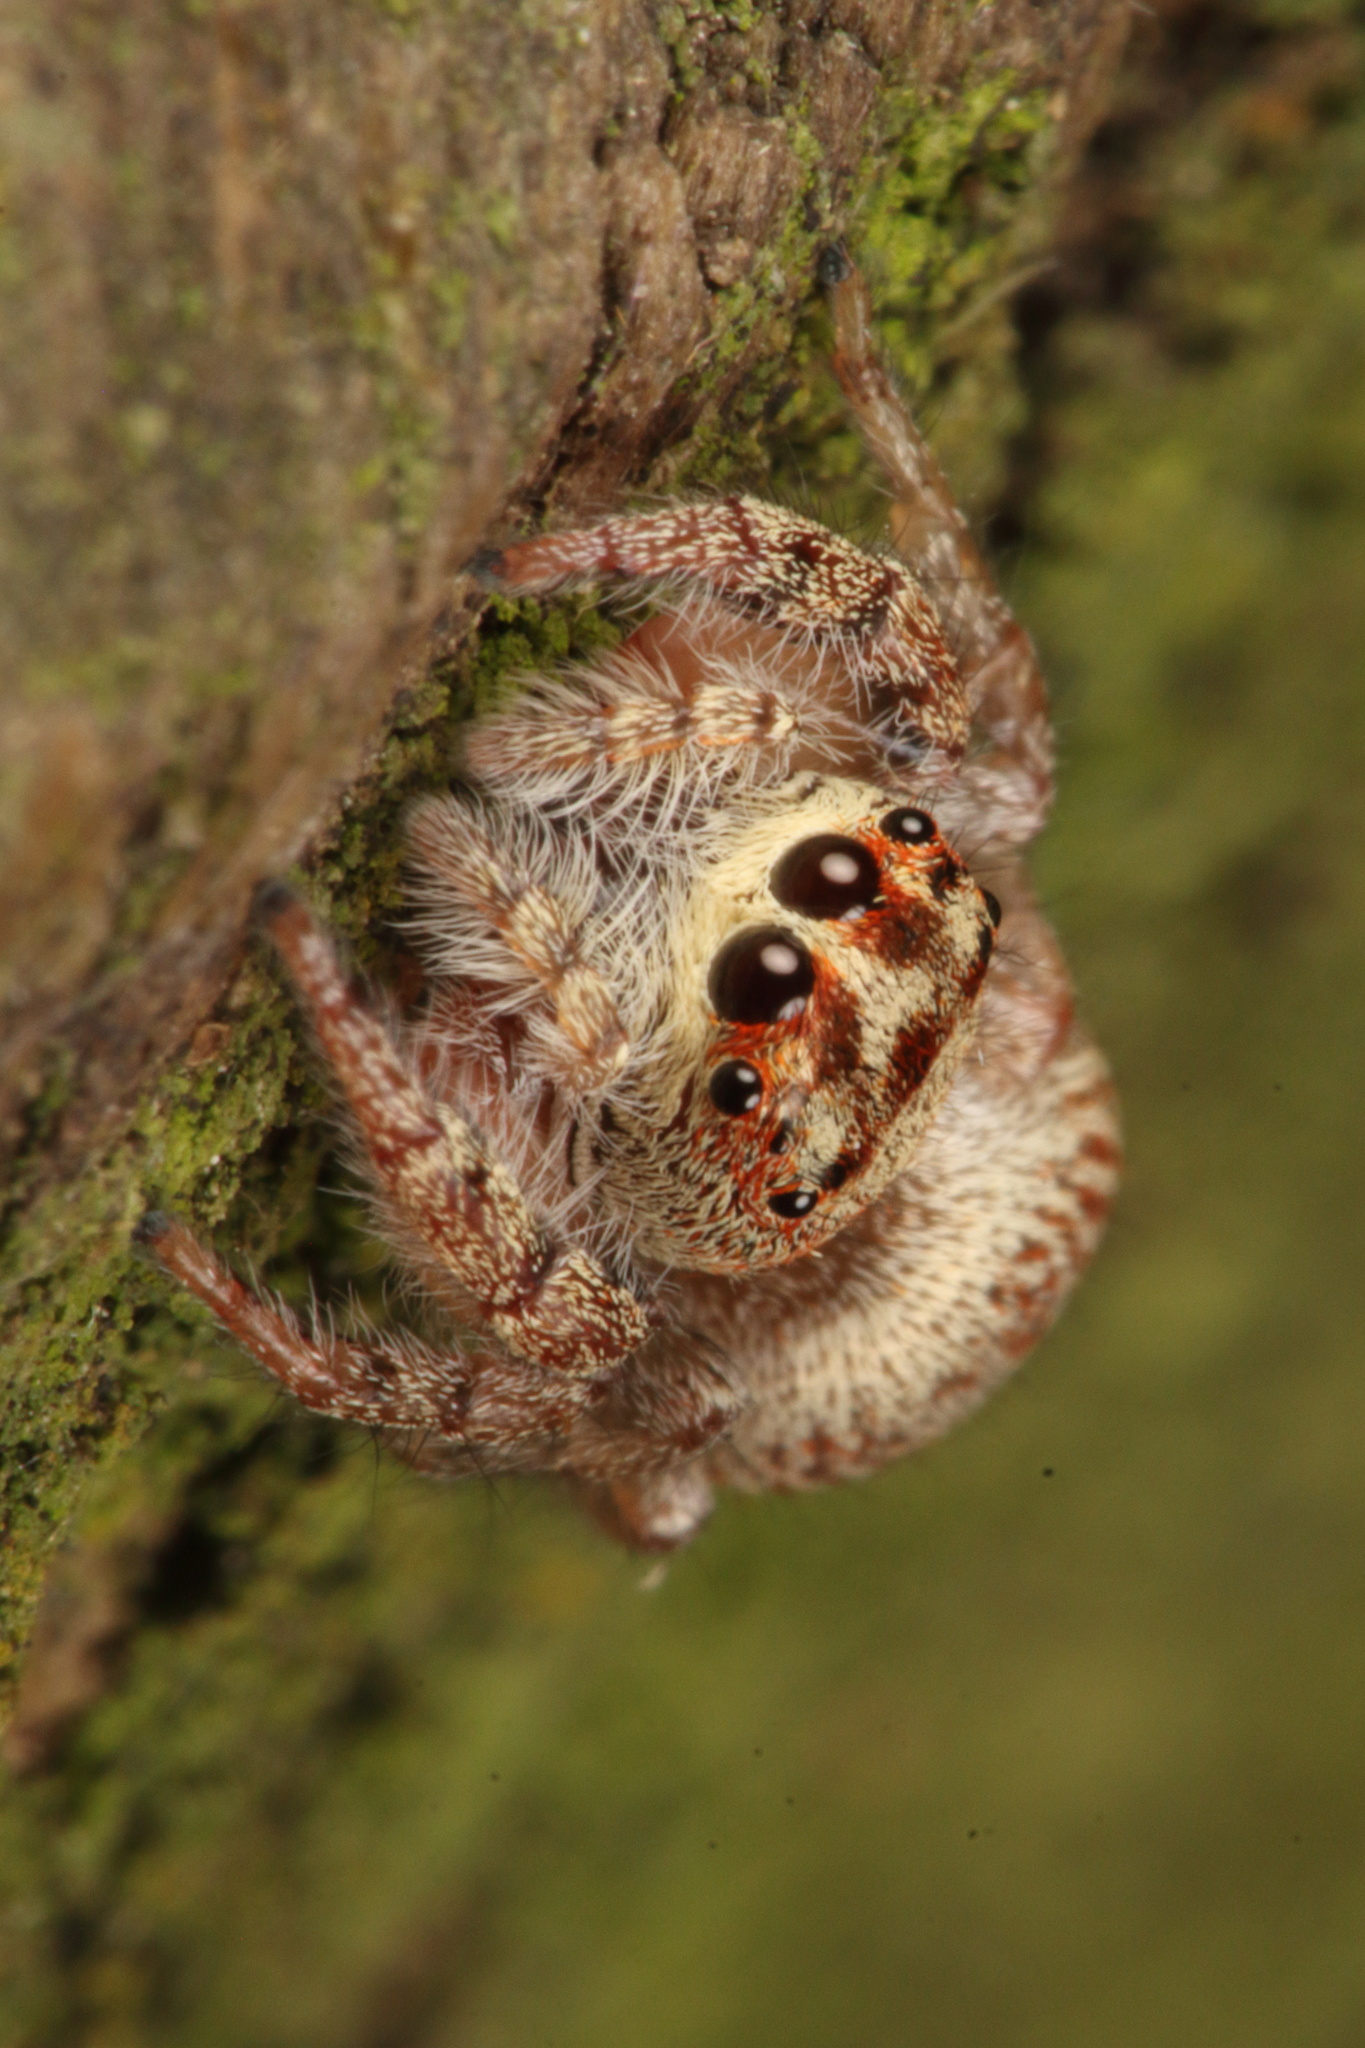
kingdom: Animalia
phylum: Arthropoda
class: Arachnida
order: Araneae
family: Salticidae
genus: Opisthoncus
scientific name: Opisthoncus polyphemus
